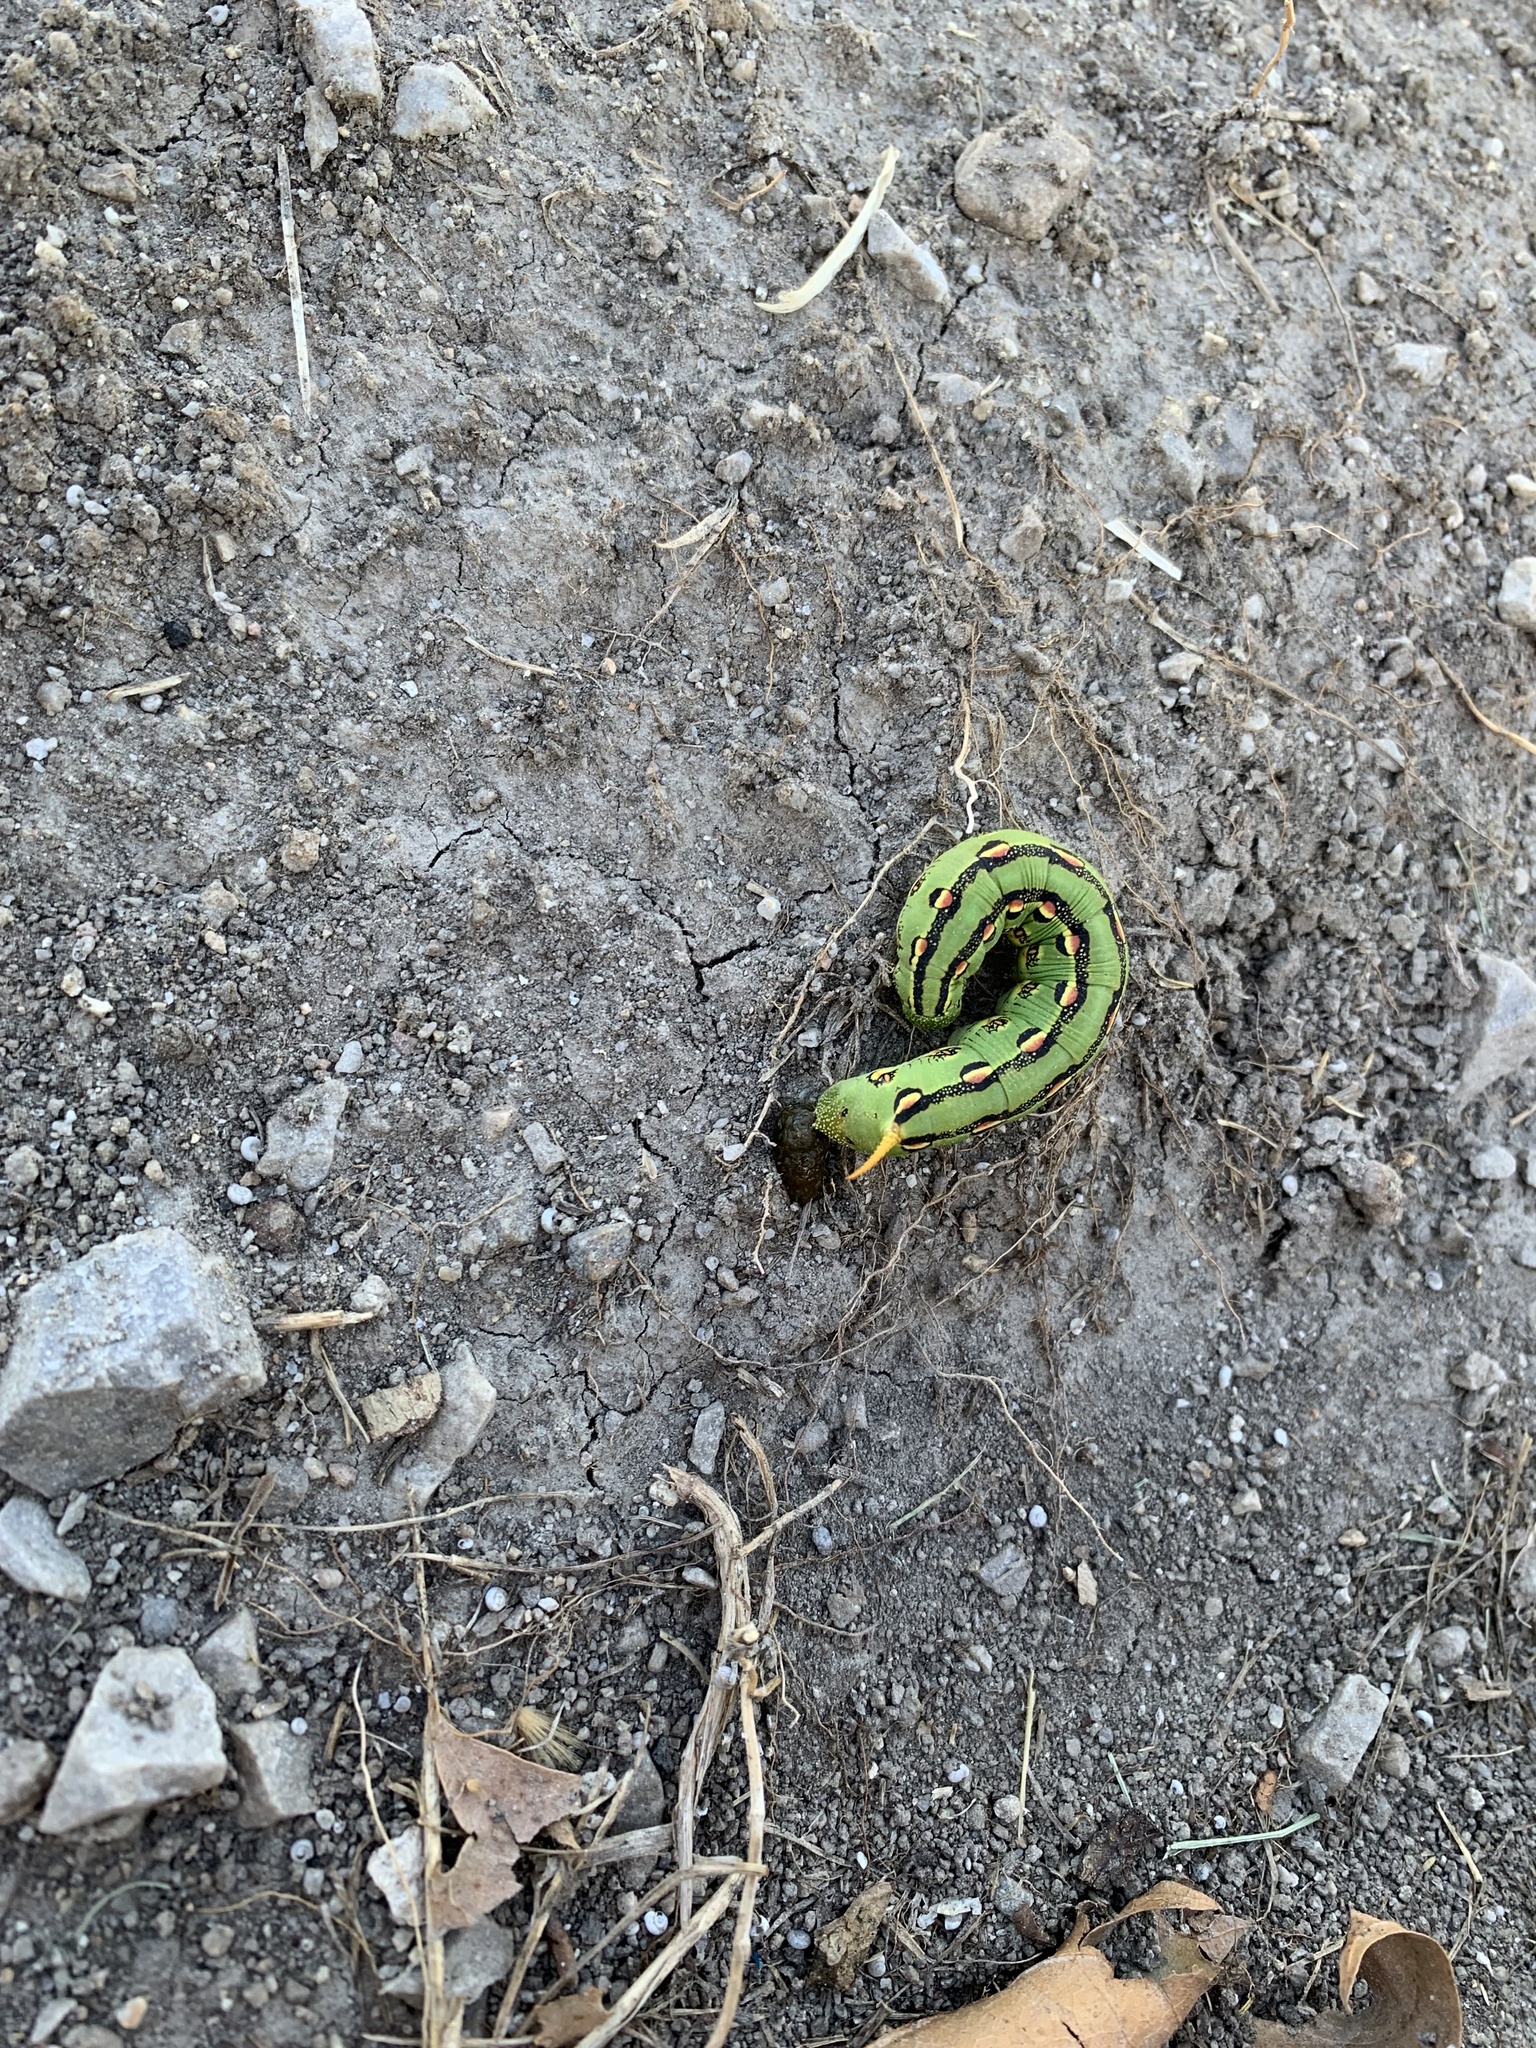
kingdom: Animalia
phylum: Arthropoda
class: Insecta
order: Lepidoptera
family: Sphingidae
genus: Hyles
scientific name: Hyles lineata
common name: White-lined sphinx
